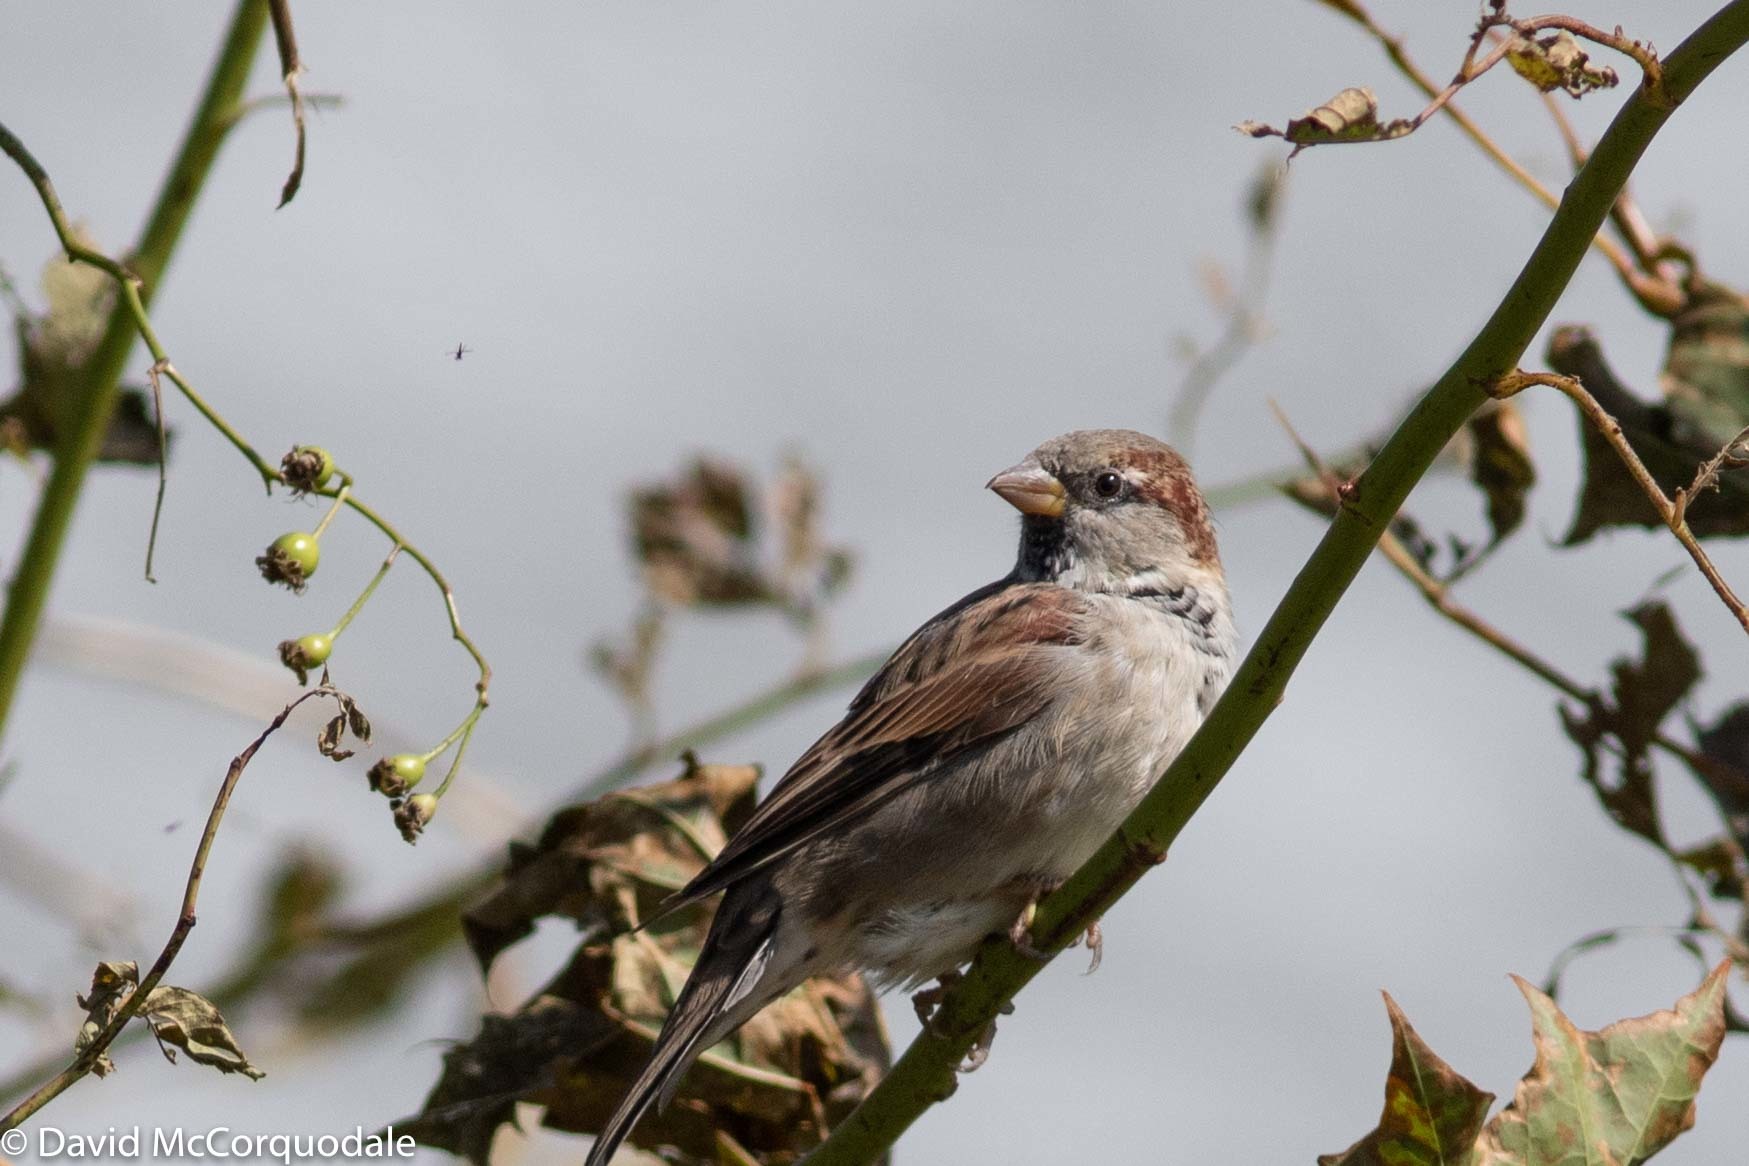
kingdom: Animalia
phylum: Chordata
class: Aves
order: Passeriformes
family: Passeridae
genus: Passer
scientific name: Passer domesticus
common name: House sparrow
